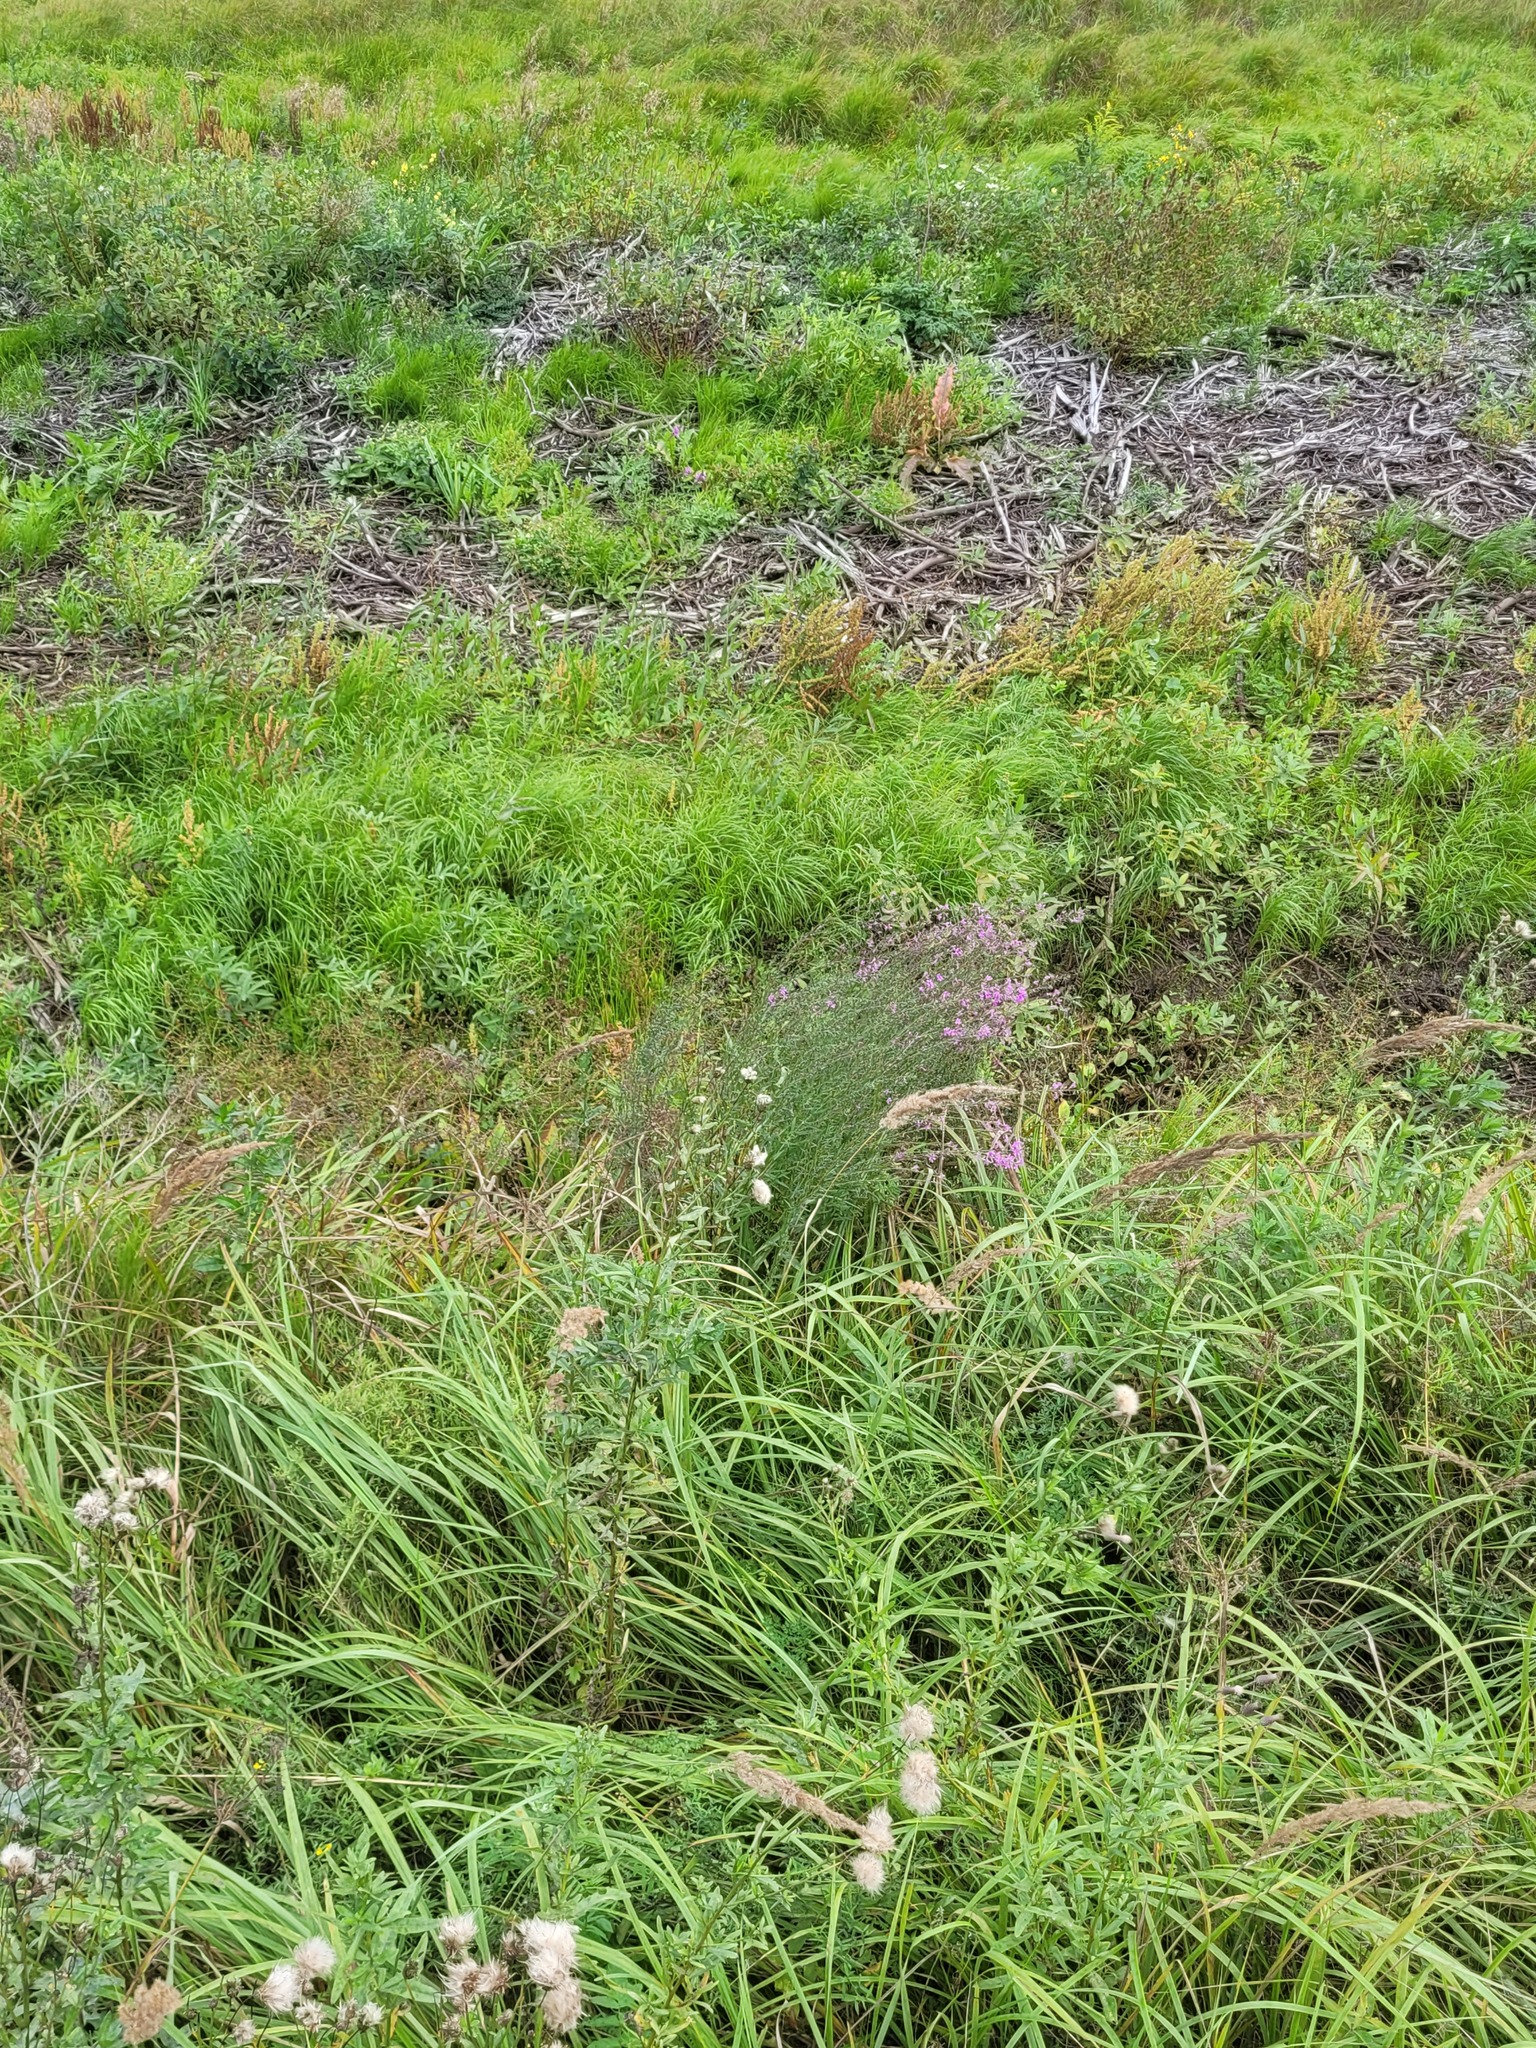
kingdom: Plantae
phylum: Tracheophyta
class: Magnoliopsida
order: Myrtales
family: Lythraceae
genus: Lythrum
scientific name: Lythrum virgatum
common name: European wand loosestrife
